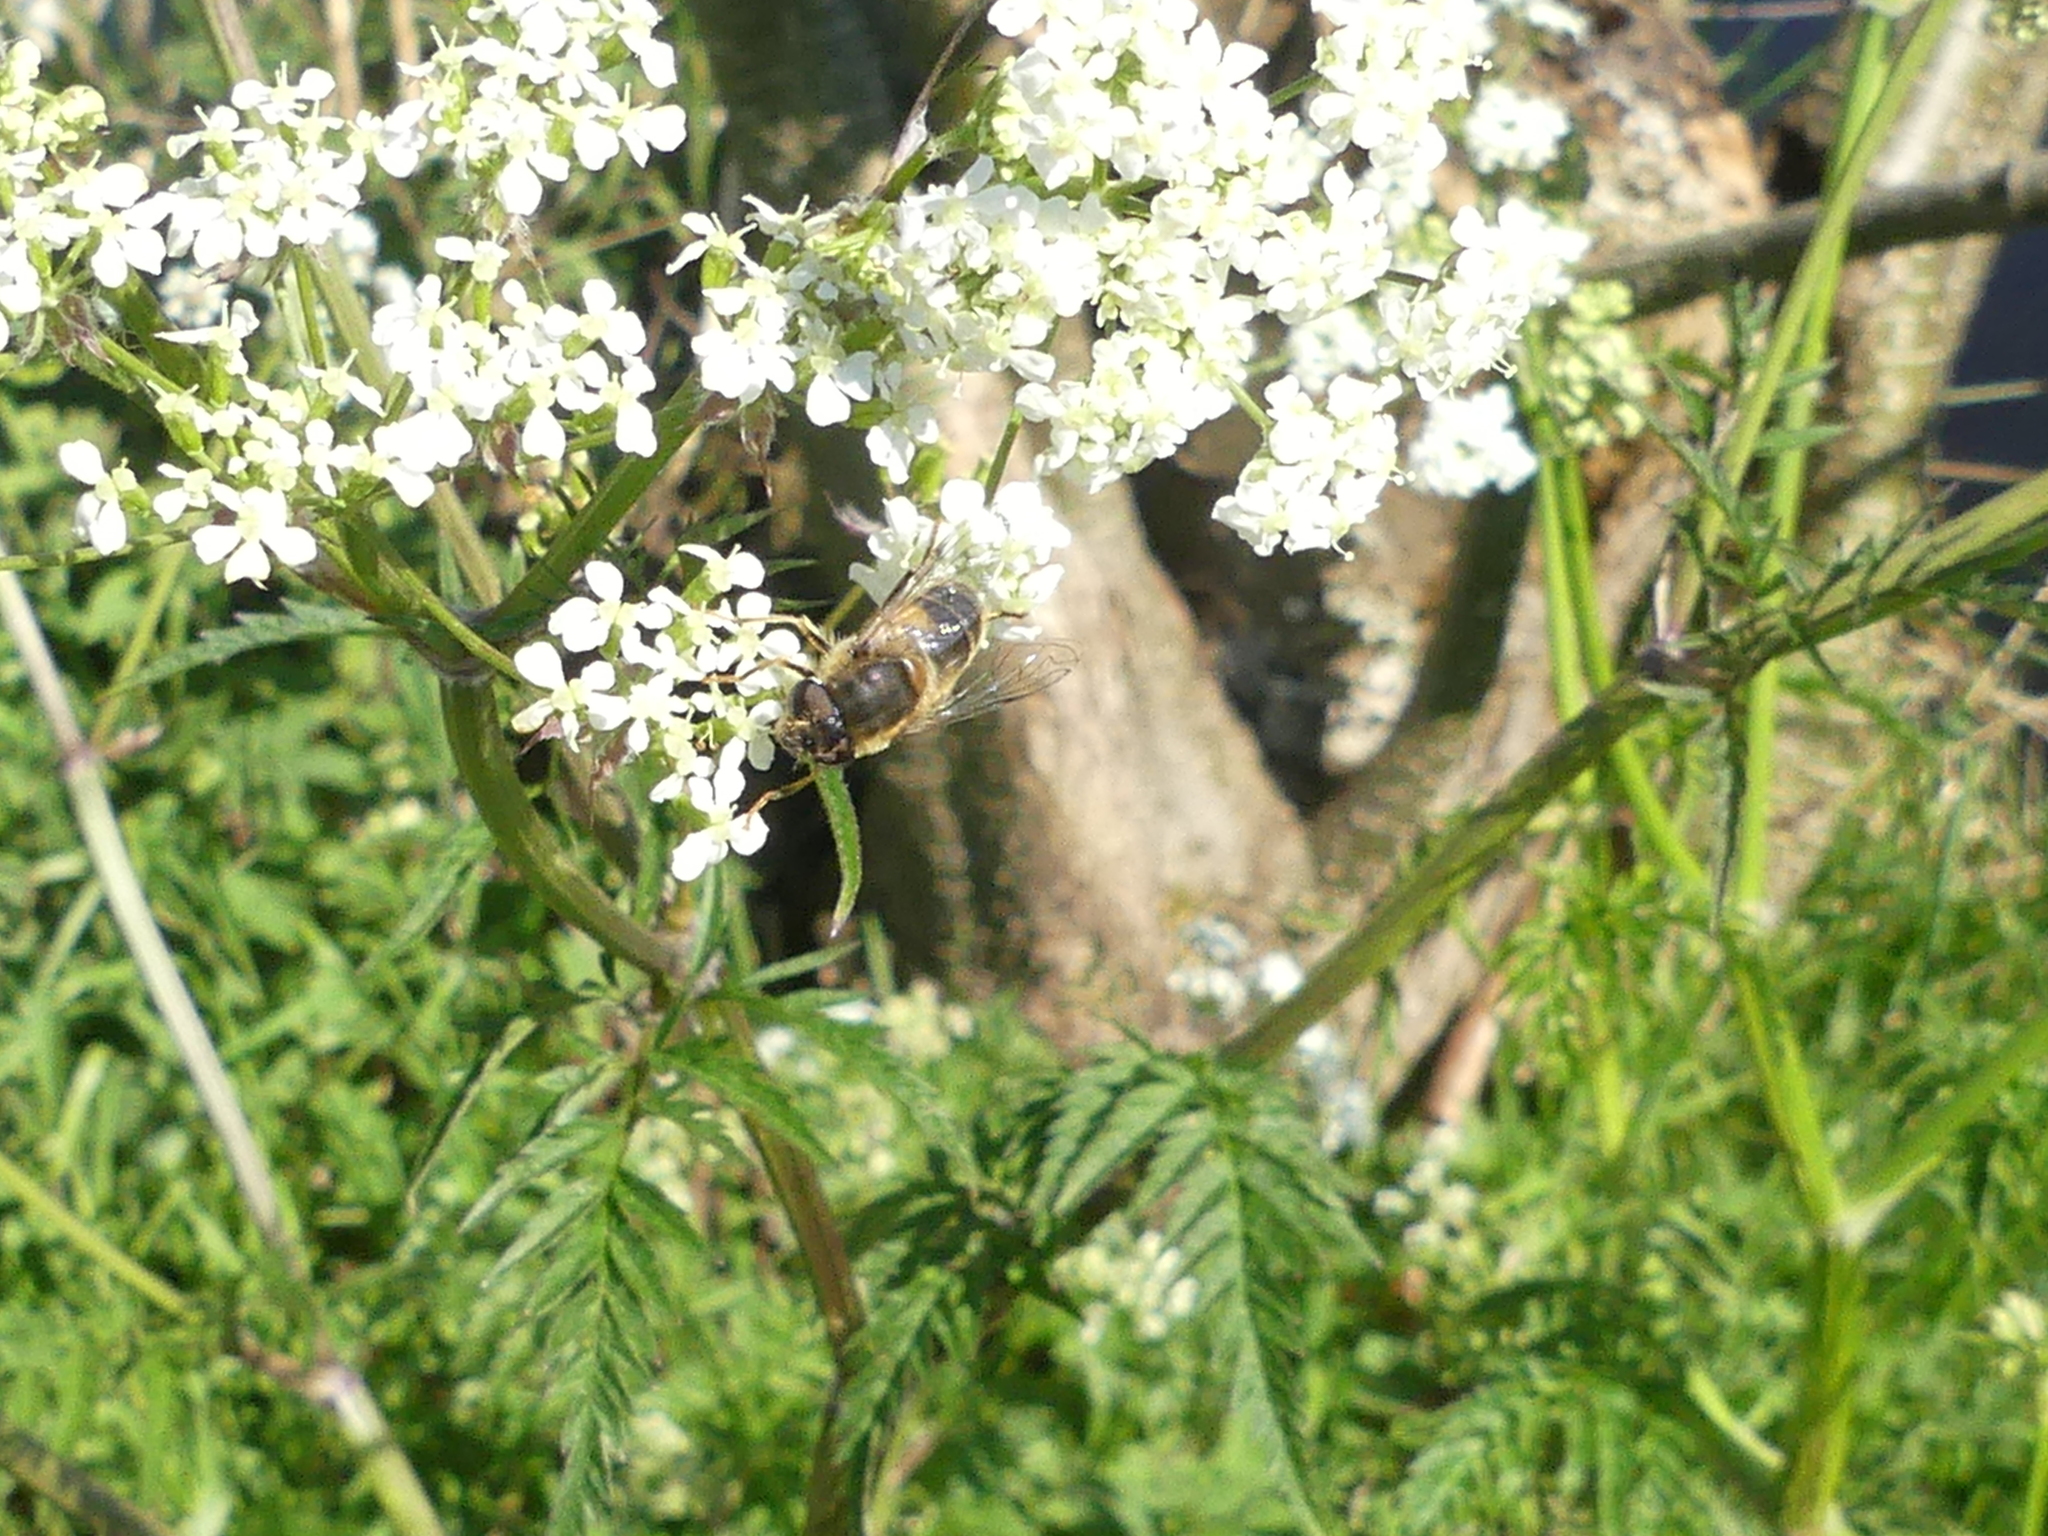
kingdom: Animalia
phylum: Arthropoda
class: Insecta
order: Diptera
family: Syrphidae
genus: Eristalis
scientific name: Eristalis pertinax
